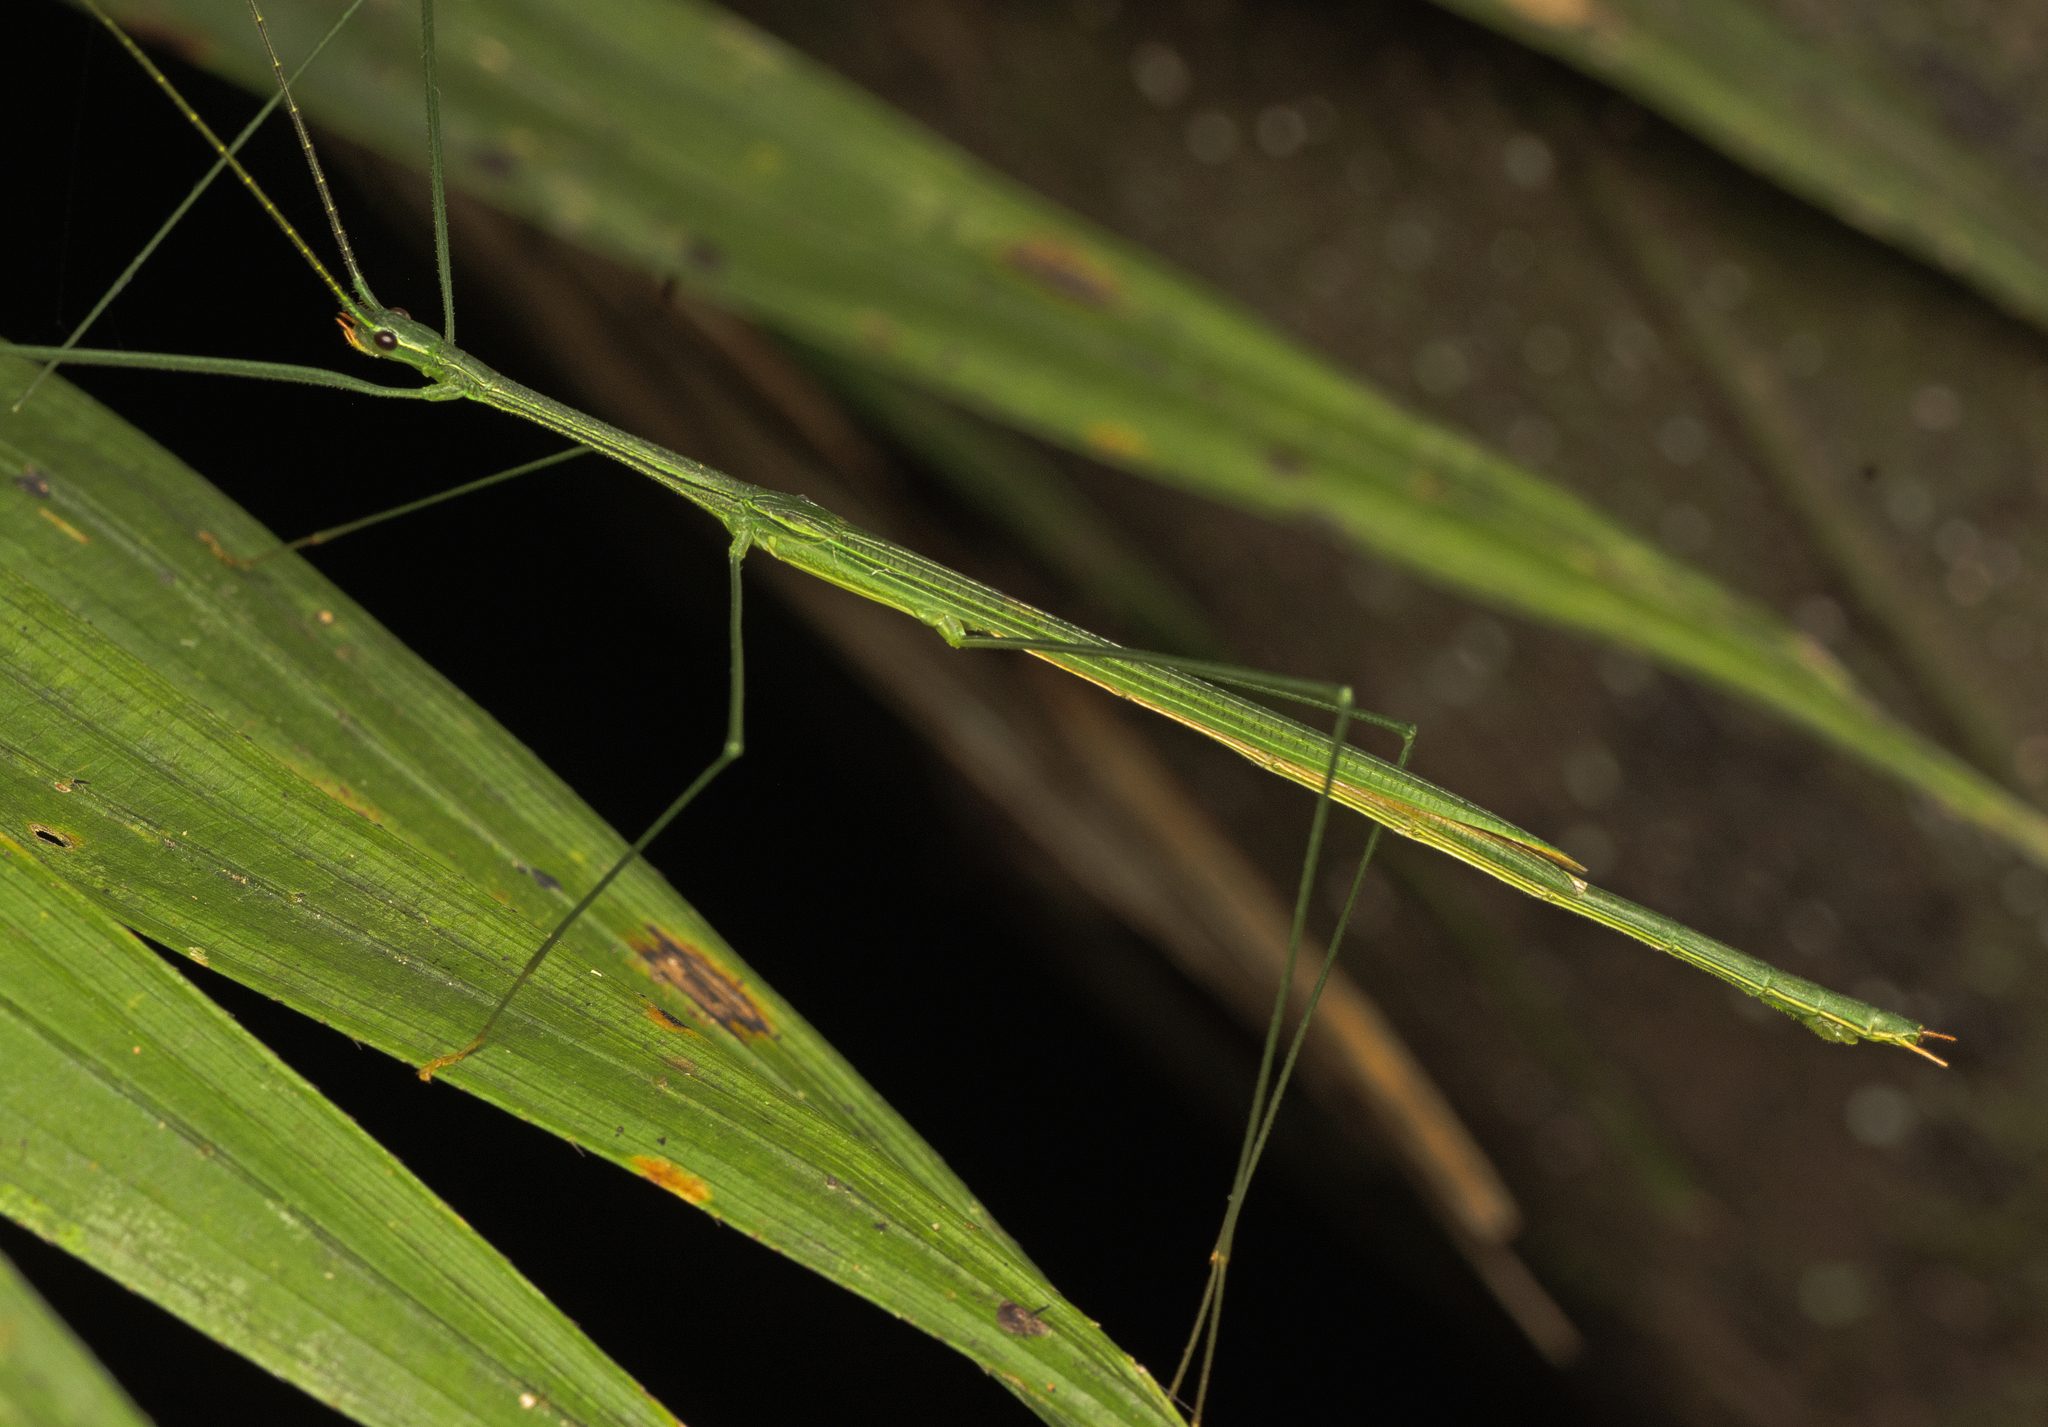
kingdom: Animalia
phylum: Arthropoda
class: Insecta
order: Phasmida
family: Lonchodidae
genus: Sipyloidea
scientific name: Sipyloidea rentzi
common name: Rentz's sipyloidea stick-insect
